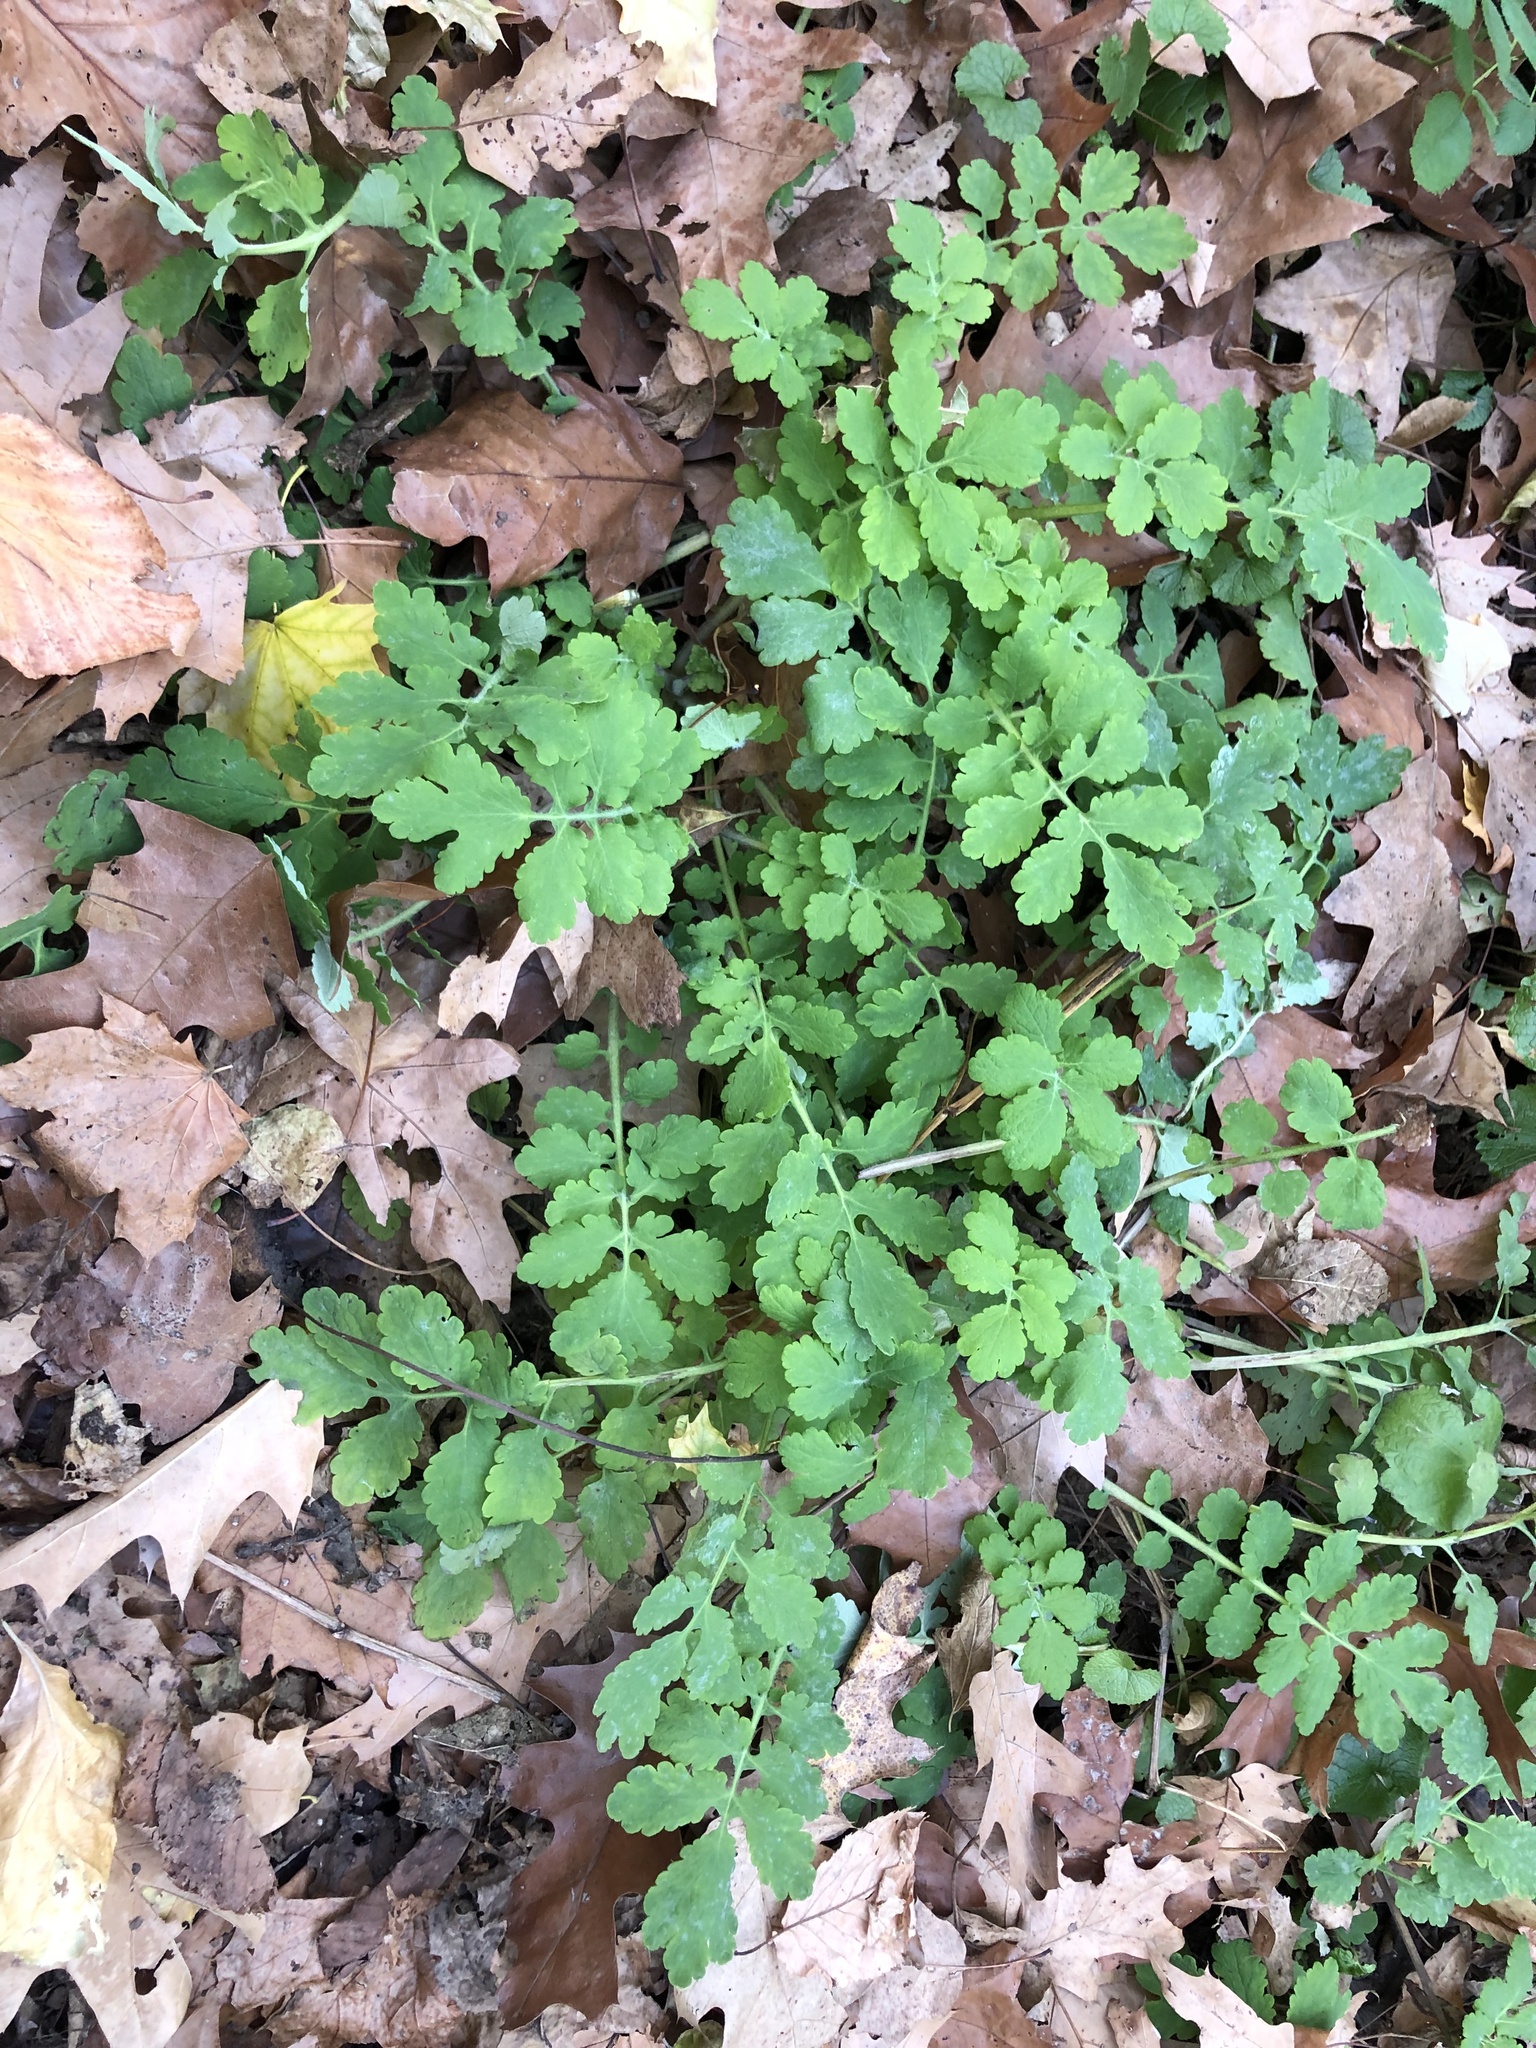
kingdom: Plantae
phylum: Tracheophyta
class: Magnoliopsida
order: Ranunculales
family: Papaveraceae
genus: Chelidonium
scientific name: Chelidonium majus
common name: Greater celandine
